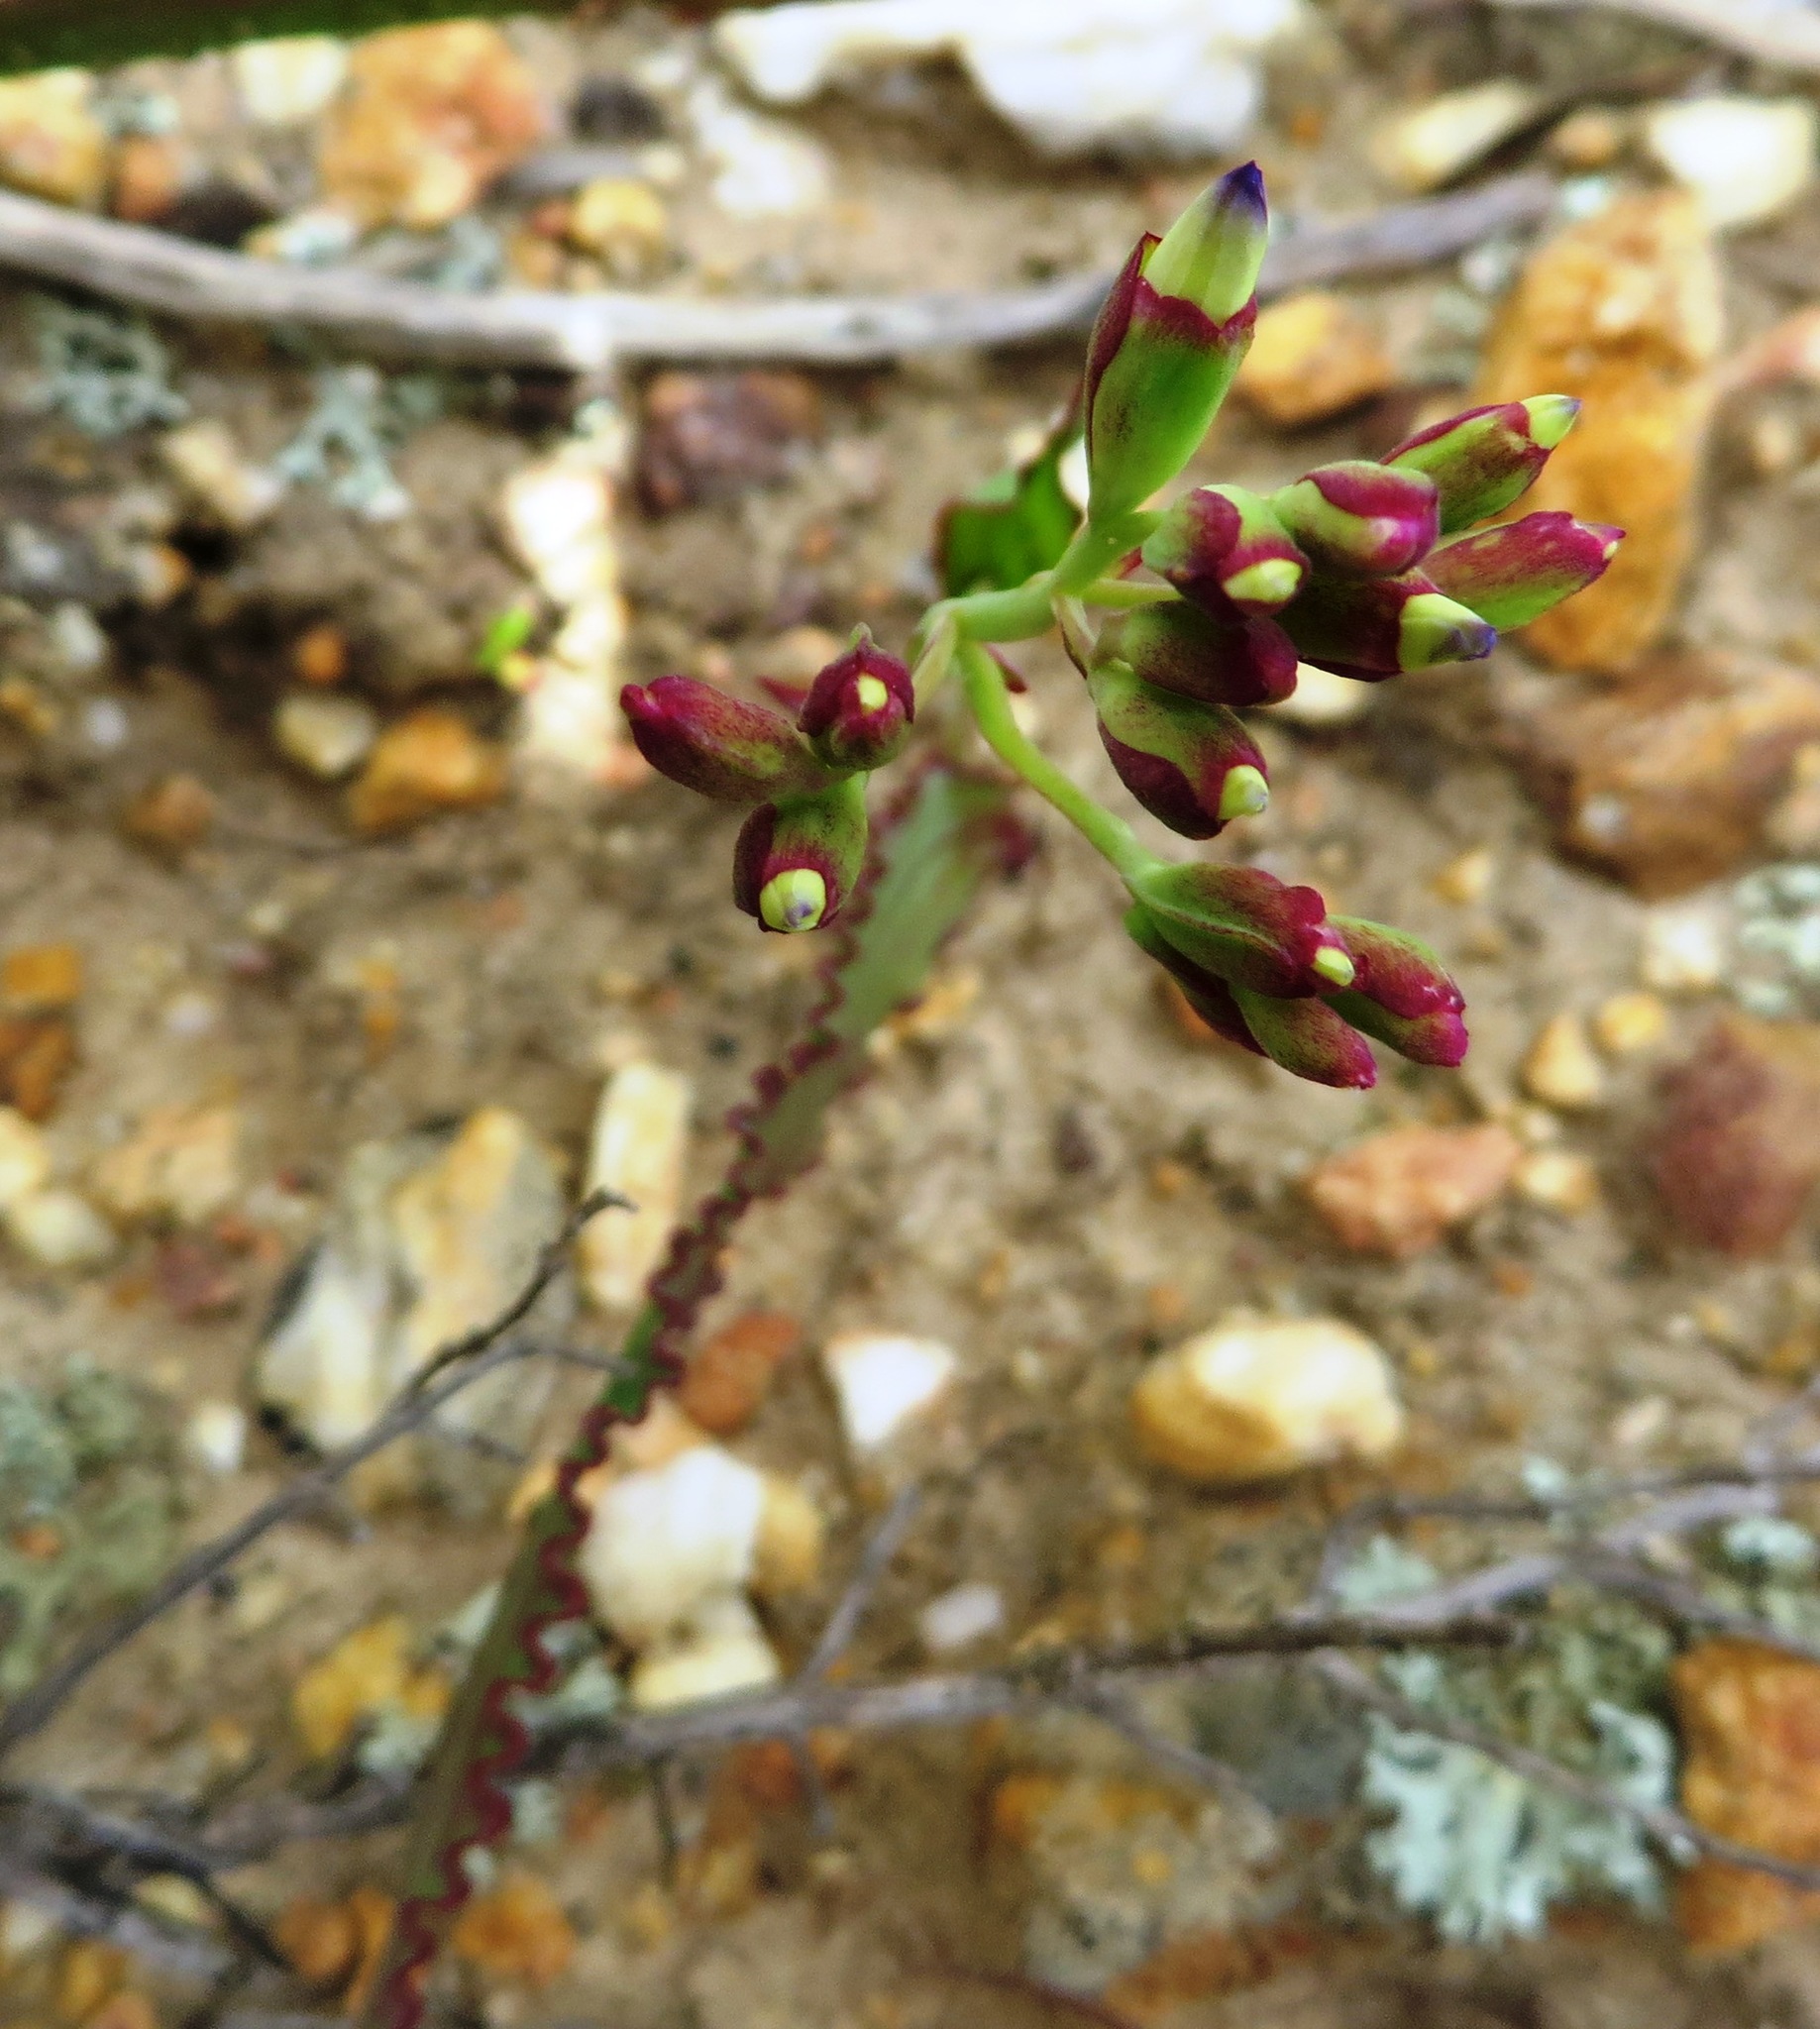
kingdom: Plantae
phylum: Tracheophyta
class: Liliopsida
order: Asparagales
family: Iridaceae
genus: Codonorhiza
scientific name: Codonorhiza corymbosa
